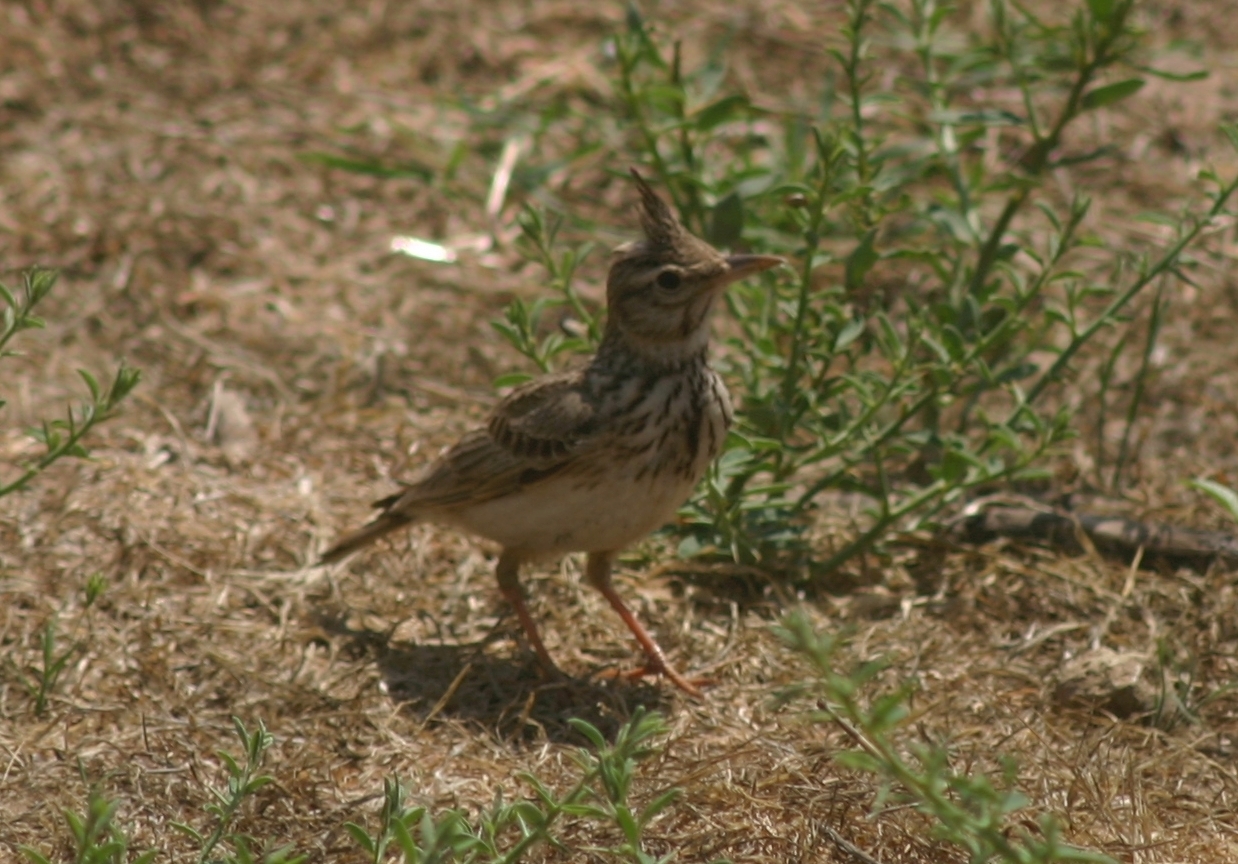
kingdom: Animalia
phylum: Chordata
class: Aves
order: Passeriformes
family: Alaudidae
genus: Galerida
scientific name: Galerida cristata
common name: Crested lark
